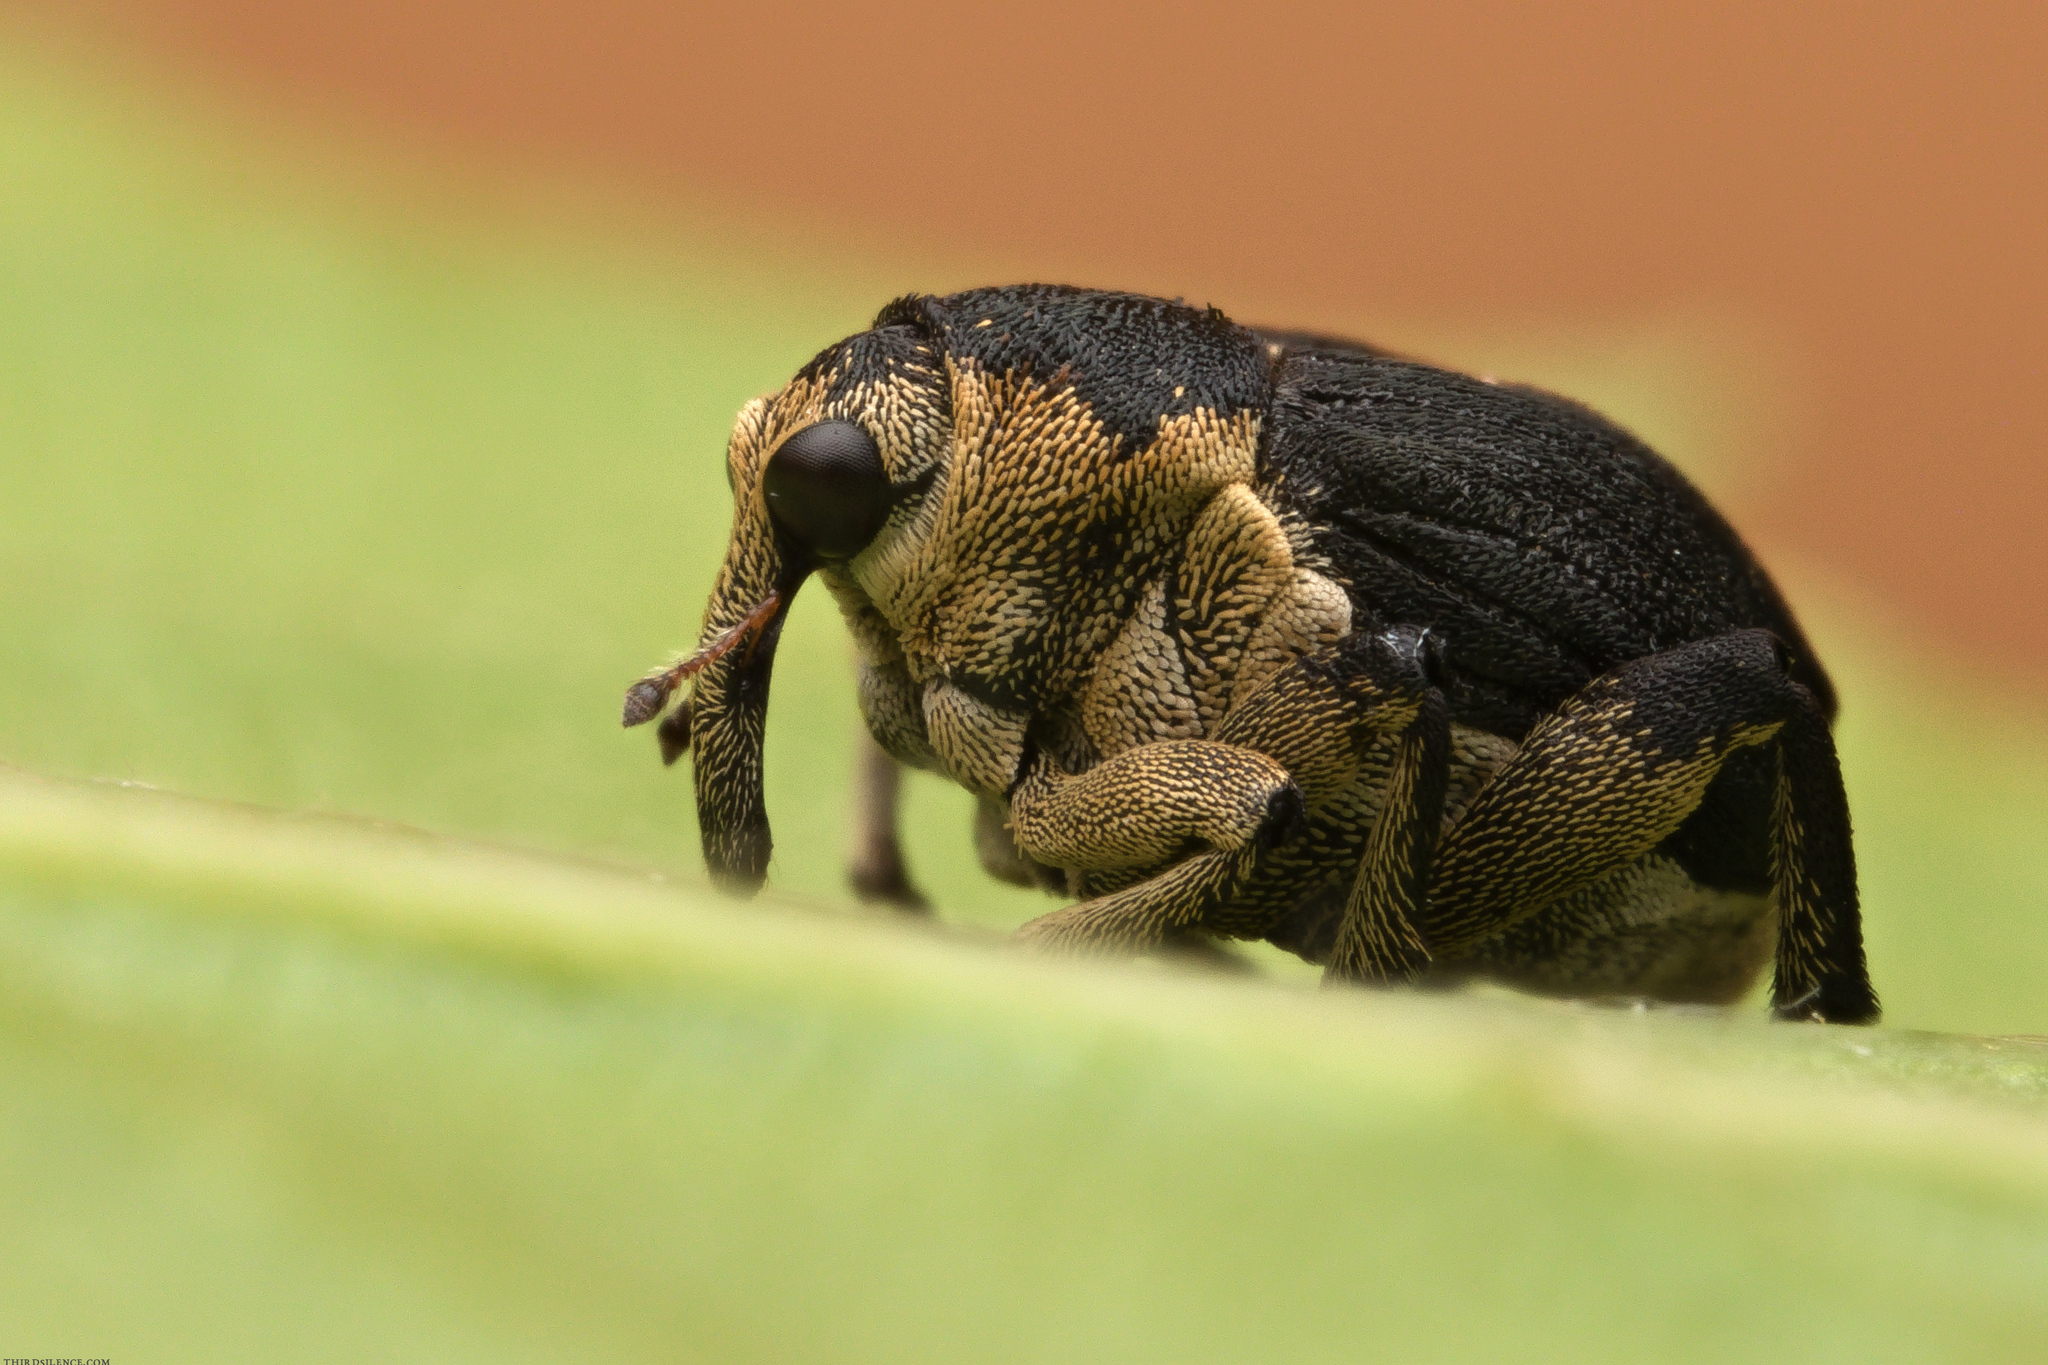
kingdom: Animalia
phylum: Arthropoda
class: Insecta
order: Coleoptera
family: Curculionidae
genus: Mononychus
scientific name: Mononychus punctumalbum
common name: Iris weevil
